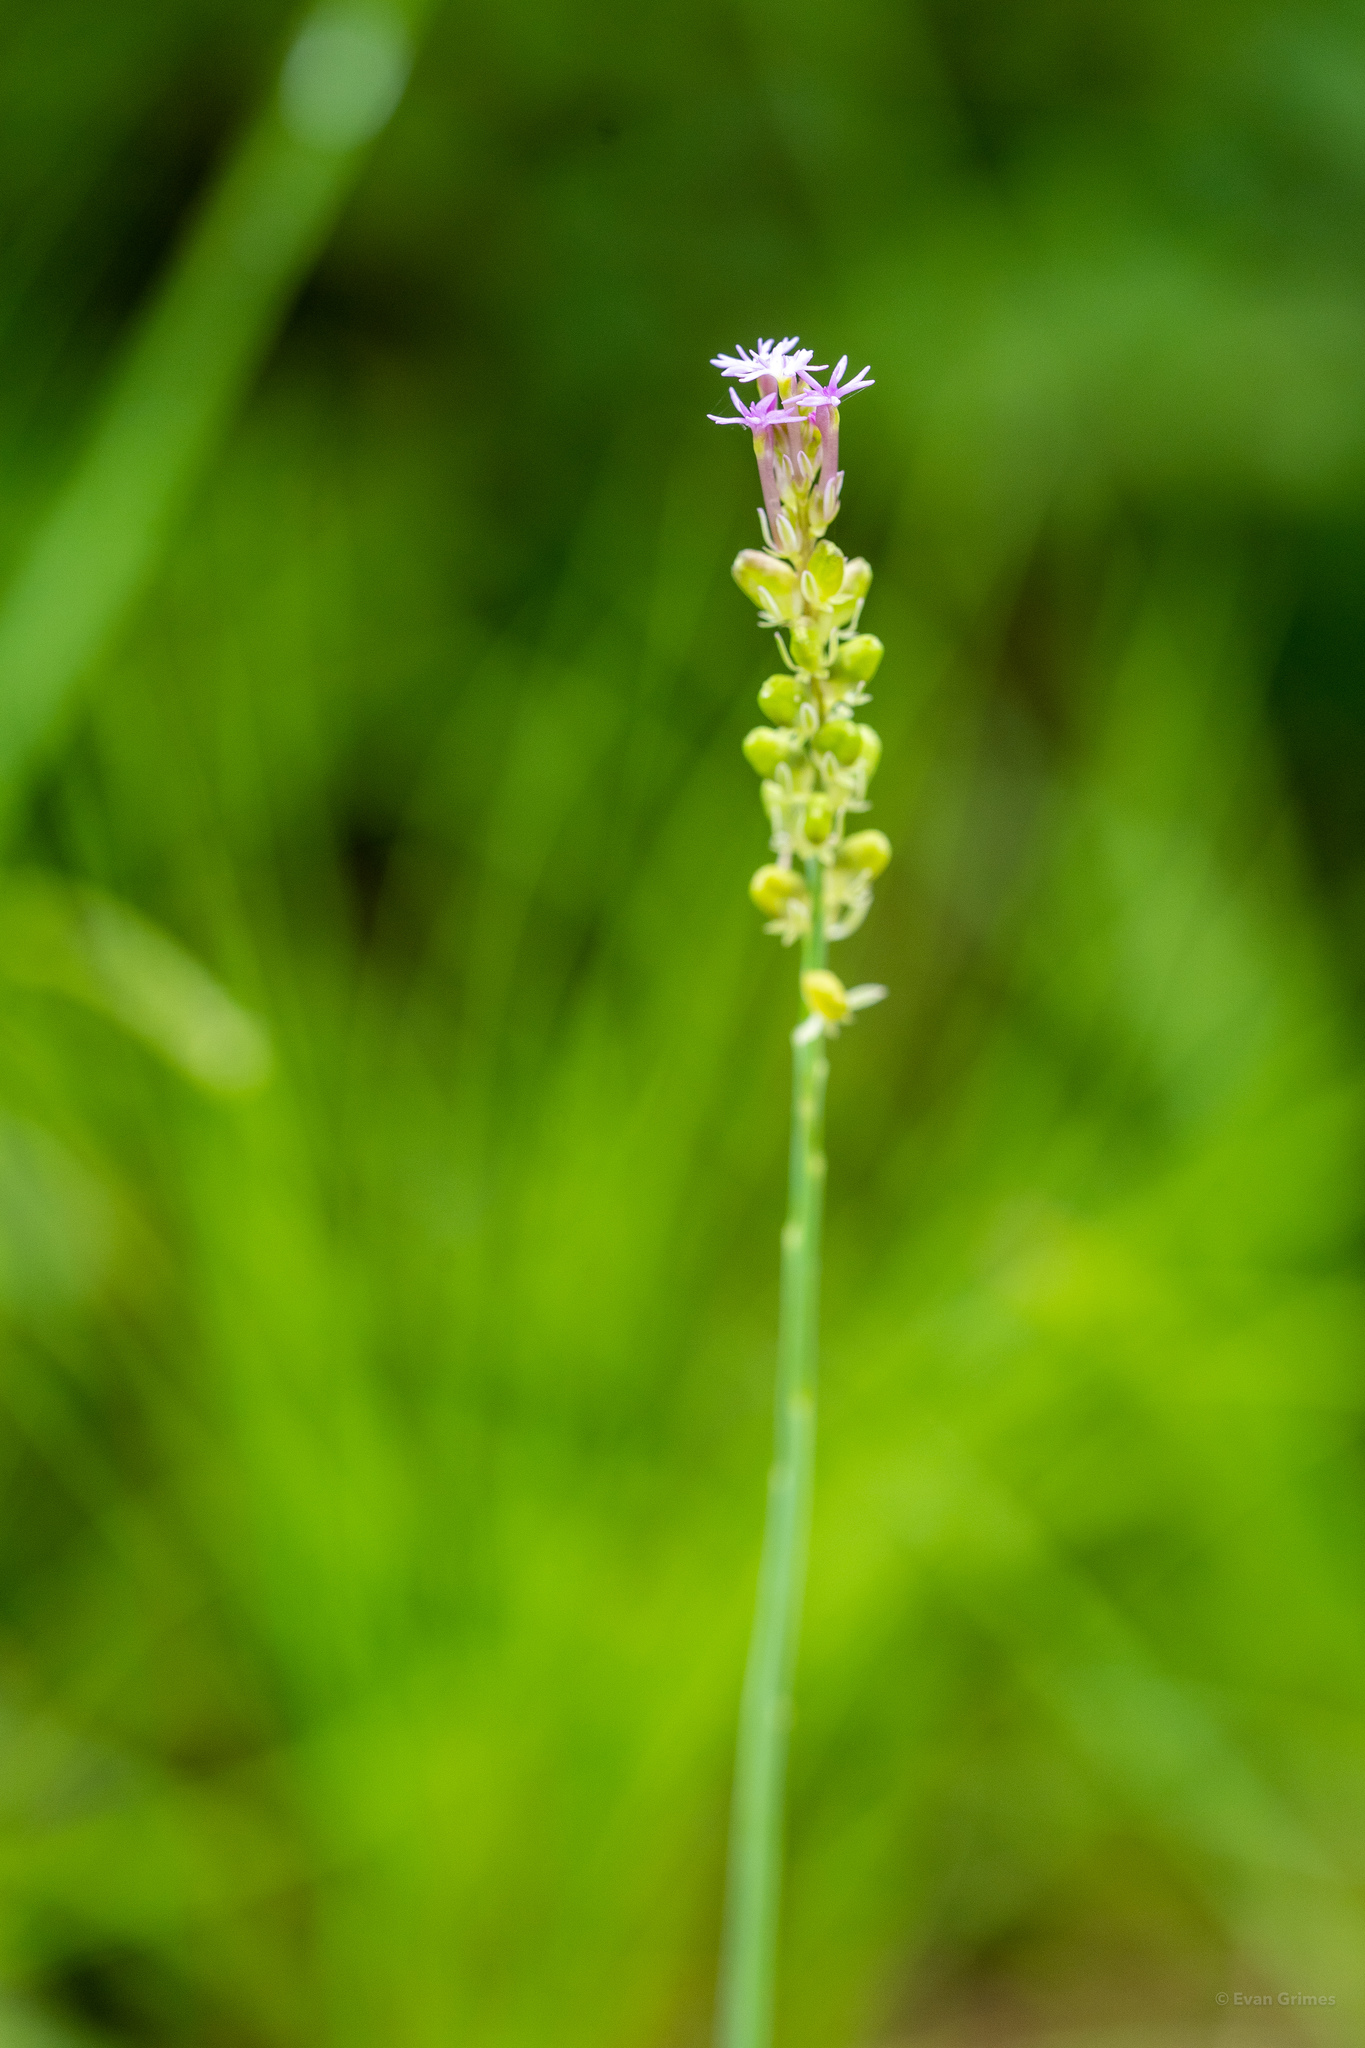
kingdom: Plantae
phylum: Tracheophyta
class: Magnoliopsida
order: Fabales
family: Polygalaceae
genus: Polygala
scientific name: Polygala incarnata
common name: Pink milkwort
